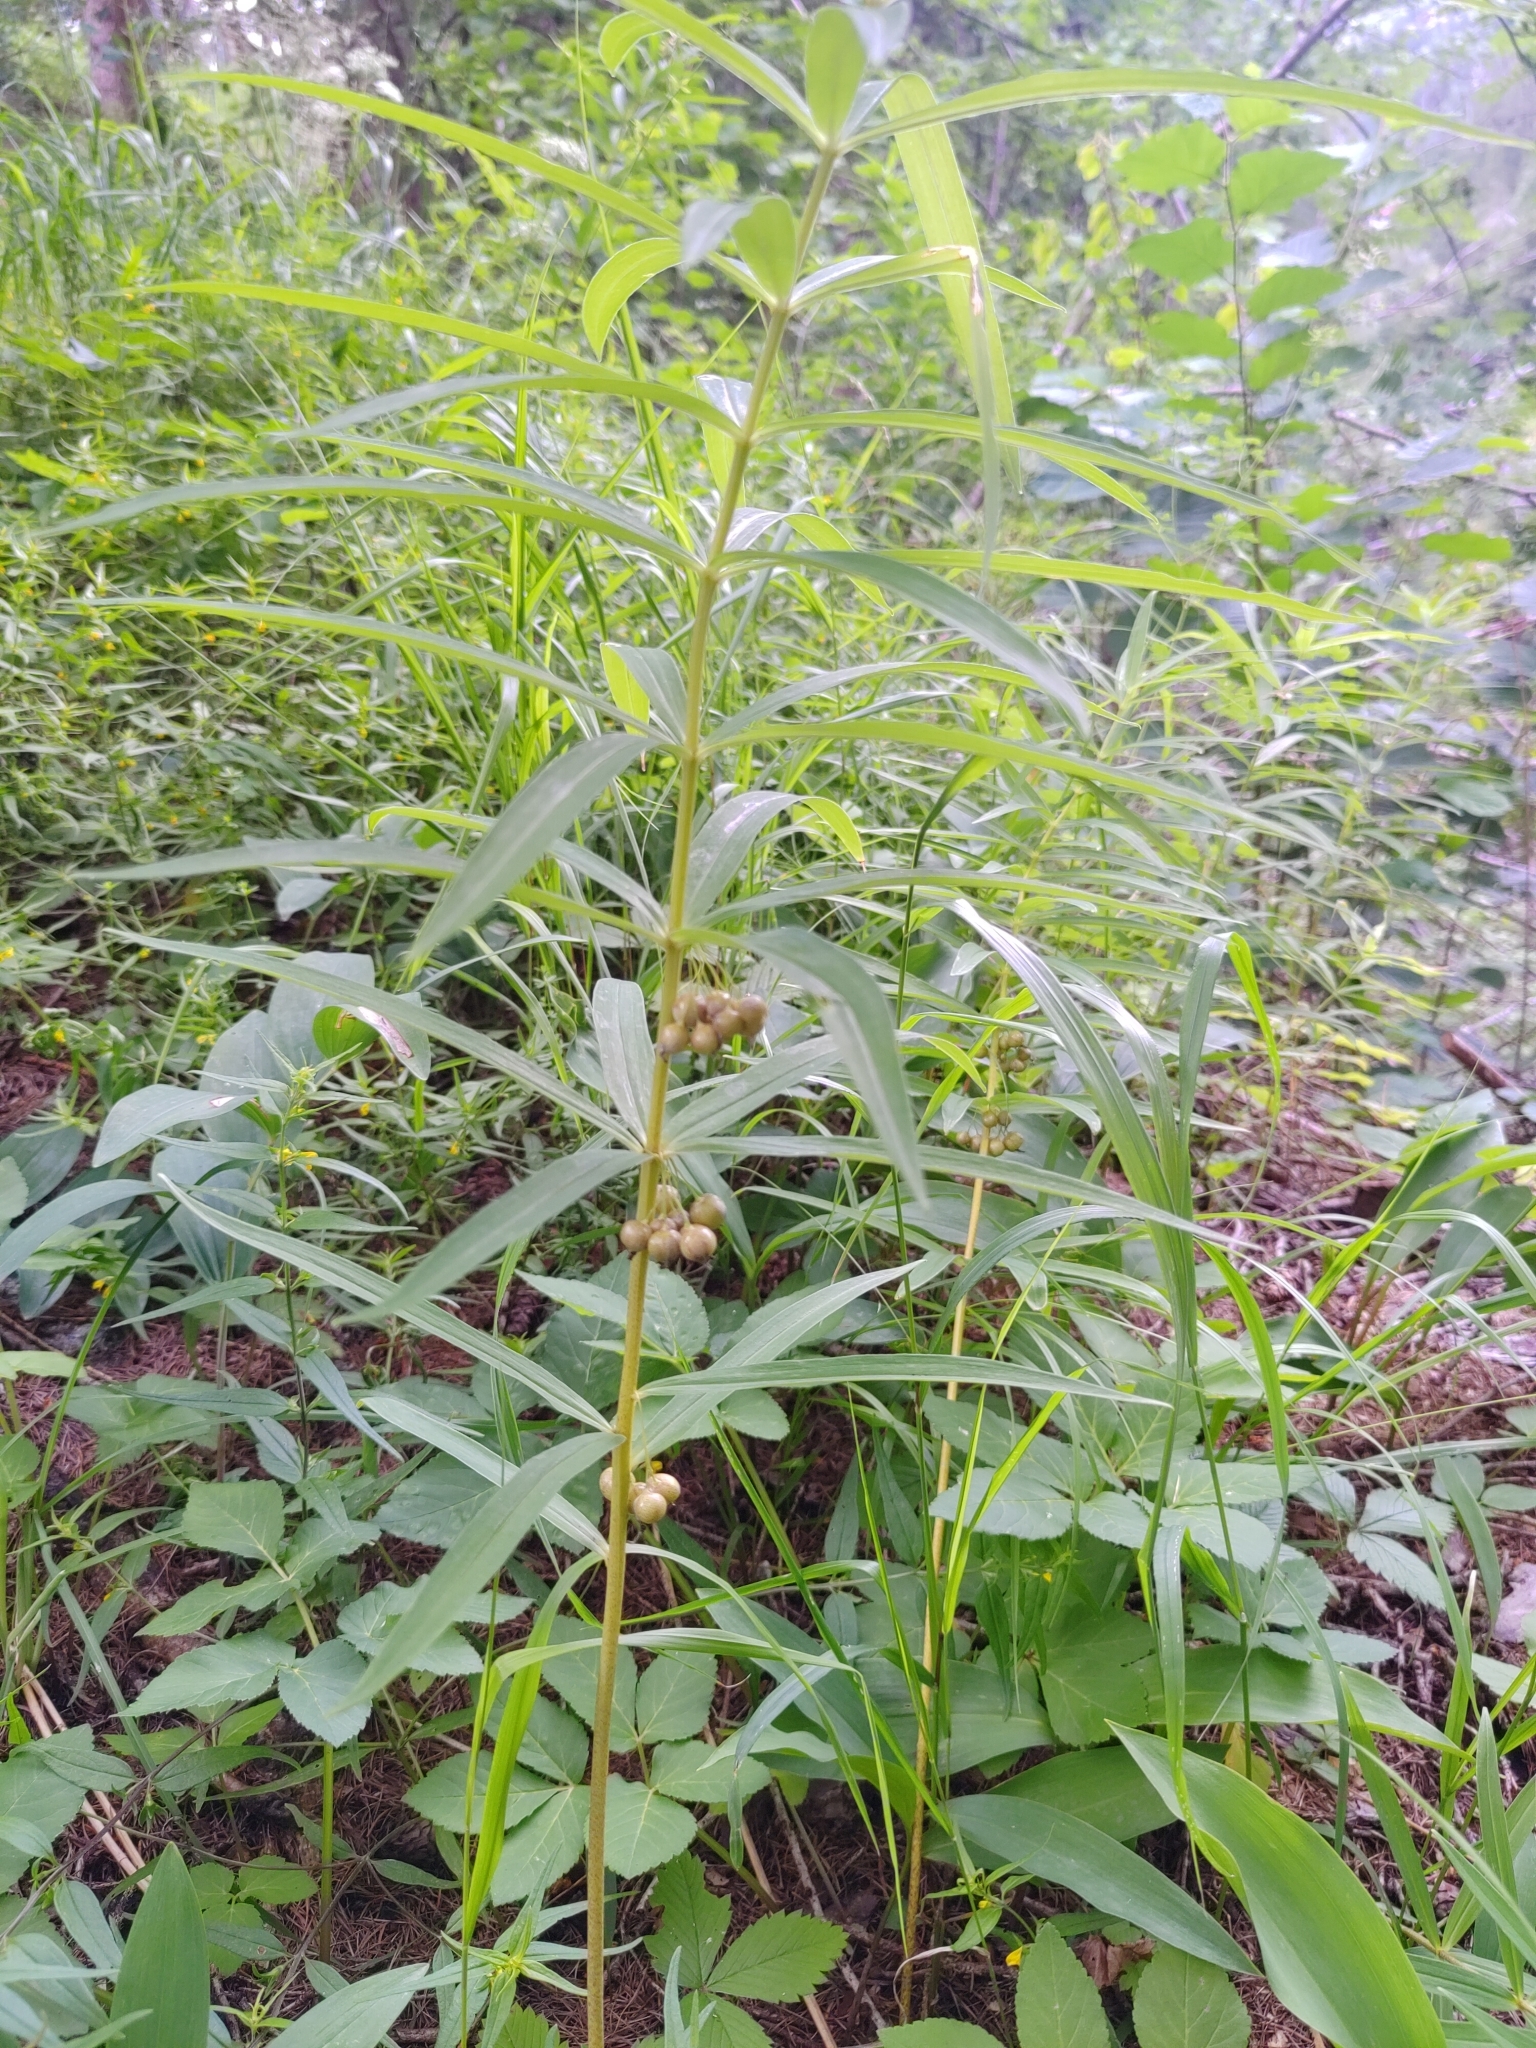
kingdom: Plantae
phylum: Tracheophyta
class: Liliopsida
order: Asparagales
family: Asparagaceae
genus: Polygonatum
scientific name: Polygonatum verticillatum
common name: Whorled solomon's-seal
